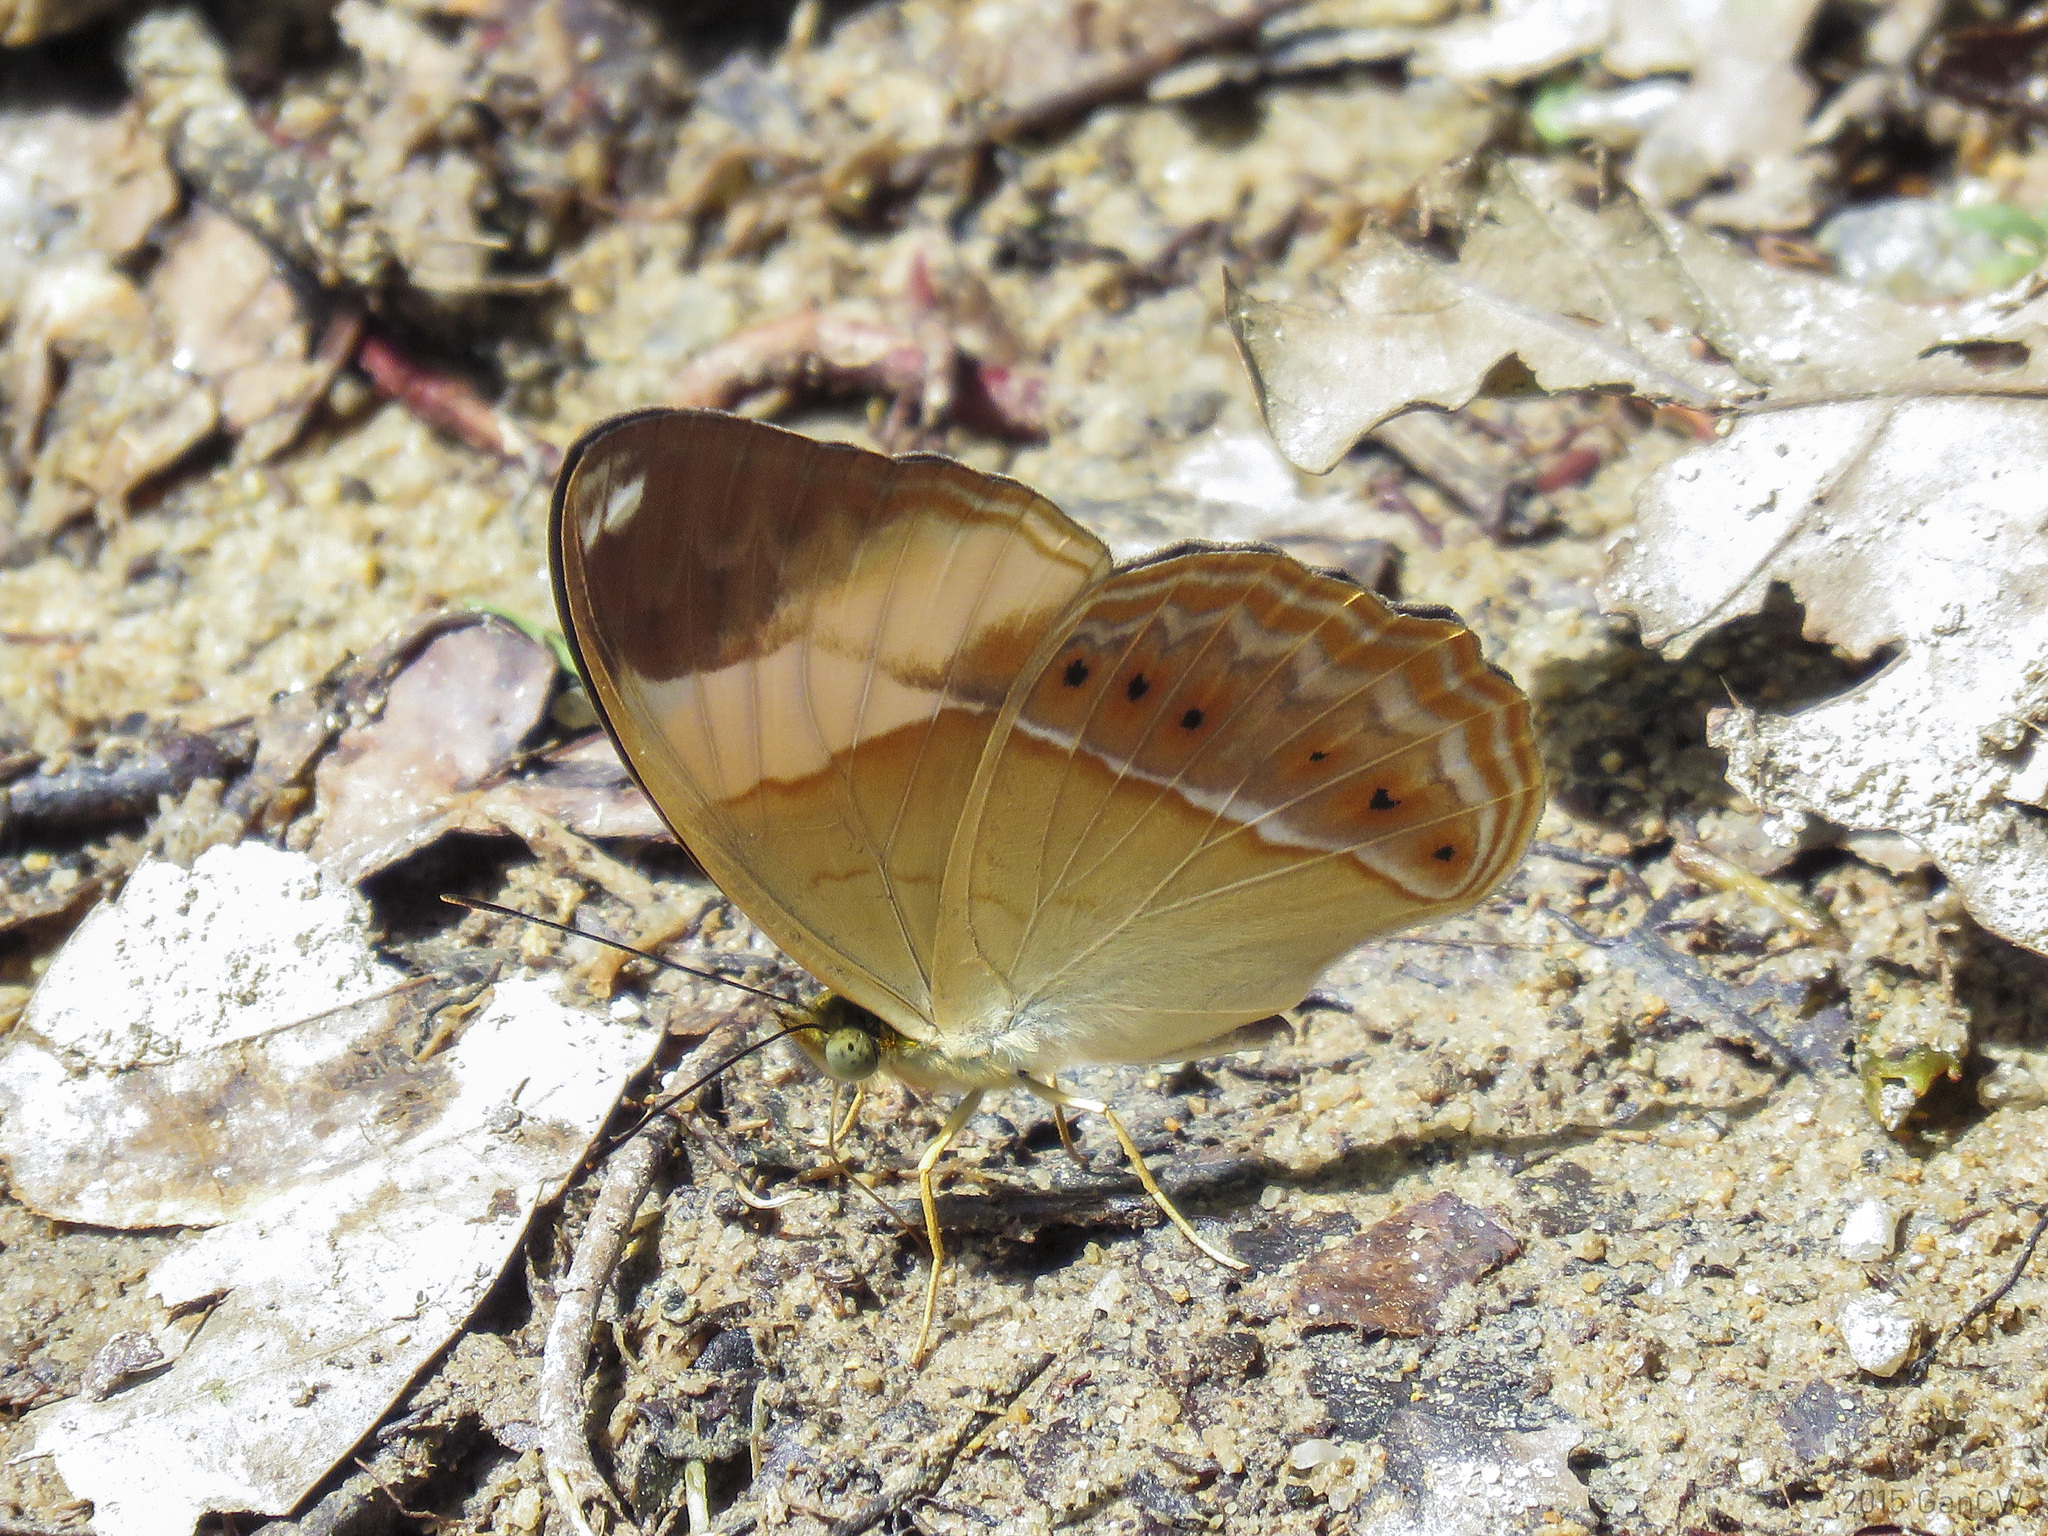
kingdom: Animalia
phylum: Arthropoda
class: Insecta
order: Lepidoptera
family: Nymphalidae
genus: Cirrochroa
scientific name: Cirrochroa orissa
